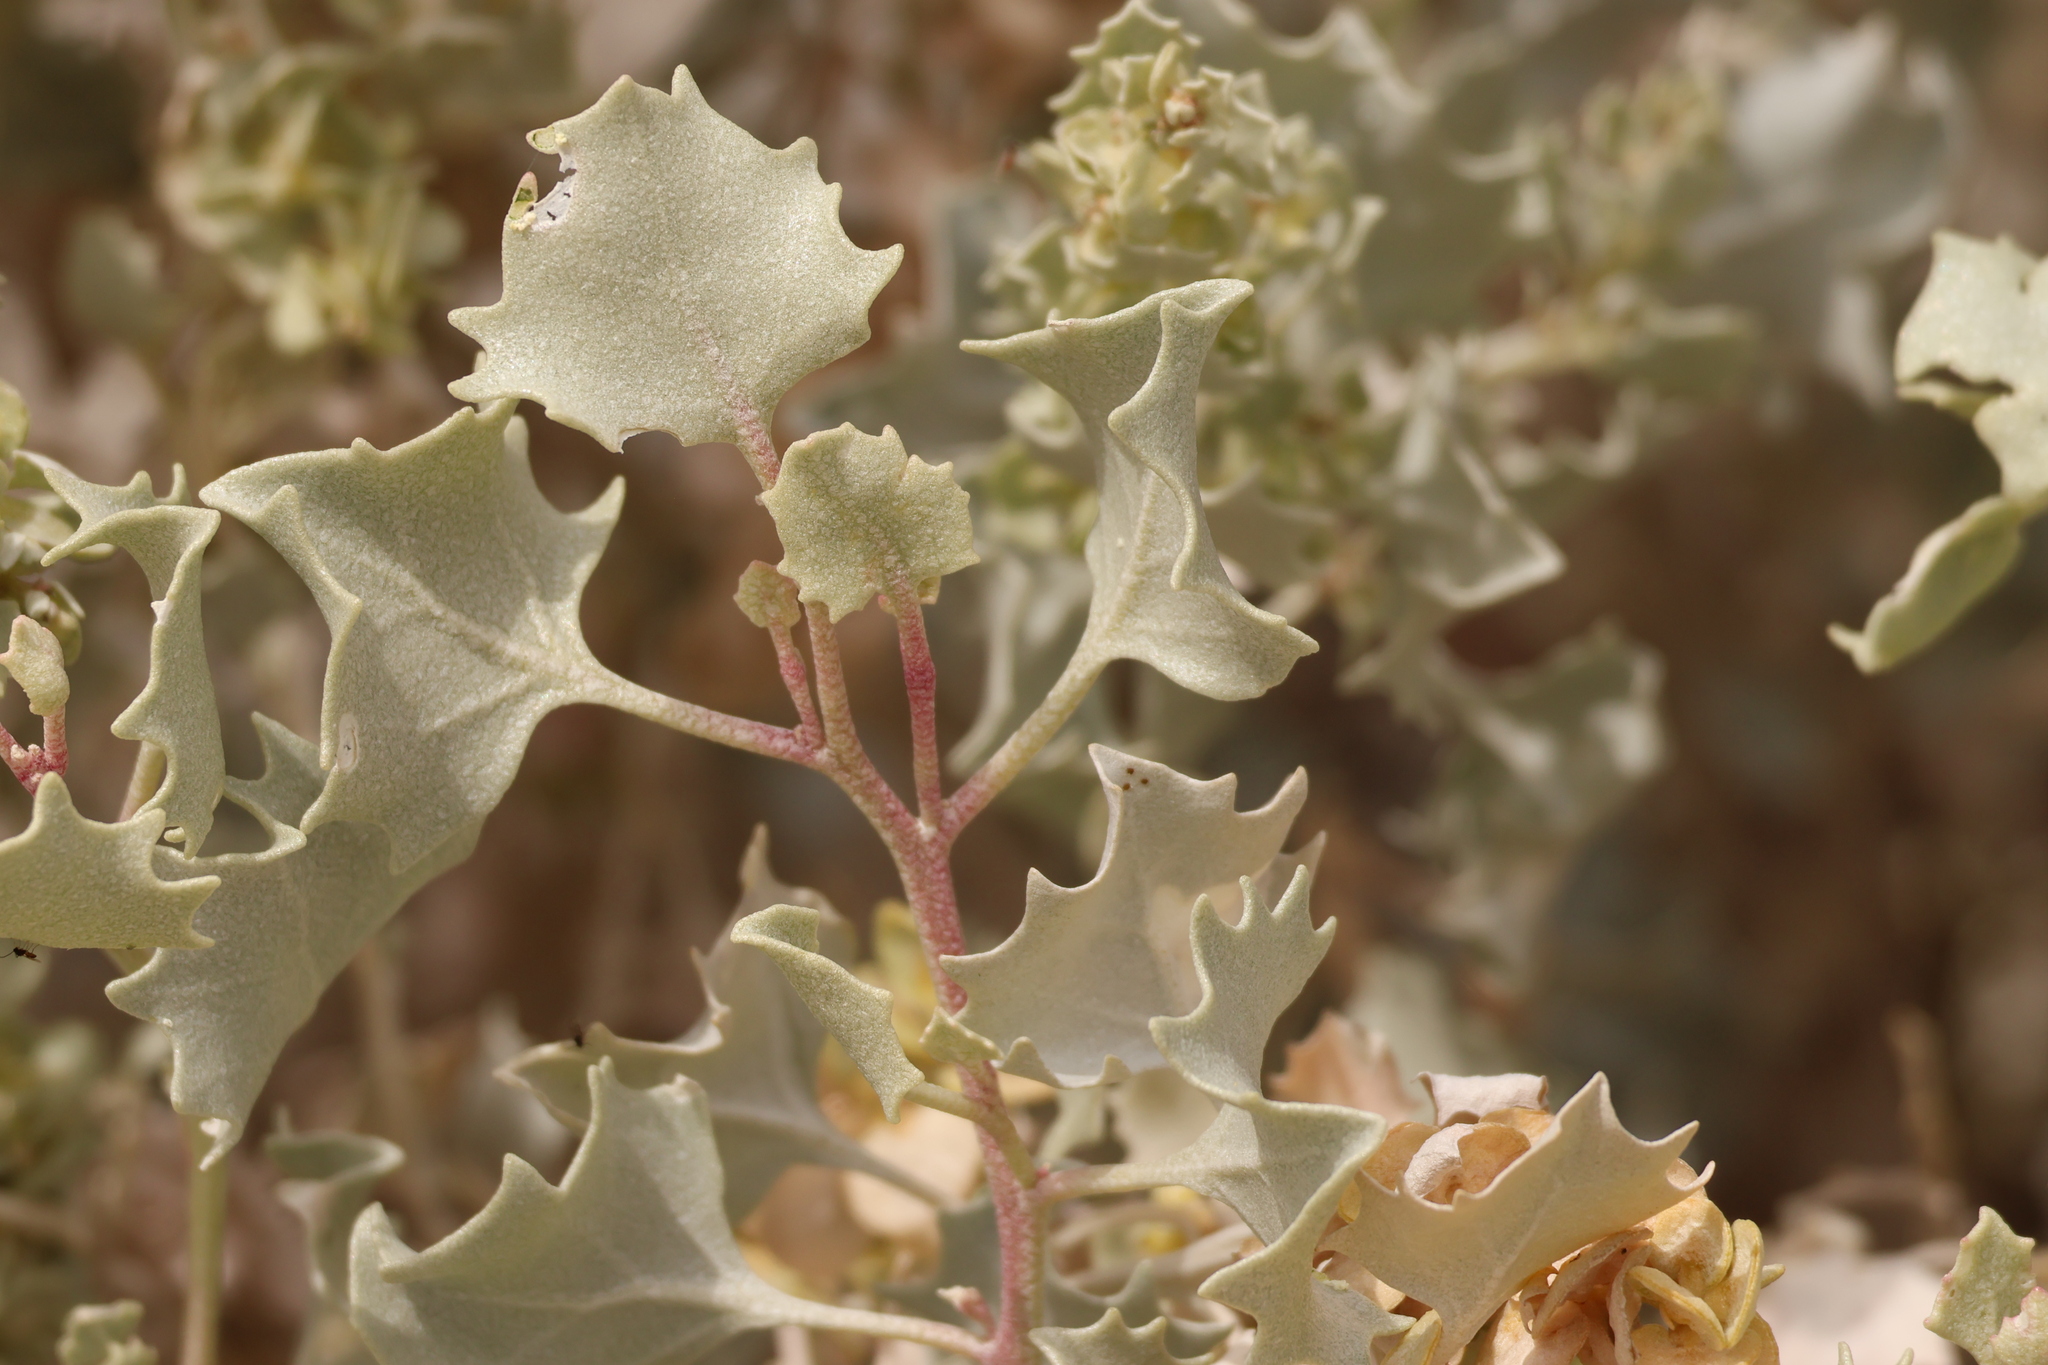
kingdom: Plantae
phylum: Tracheophyta
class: Magnoliopsida
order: Caryophyllales
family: Amaranthaceae
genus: Atriplex
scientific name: Atriplex hymenelytra
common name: Desert-holly
